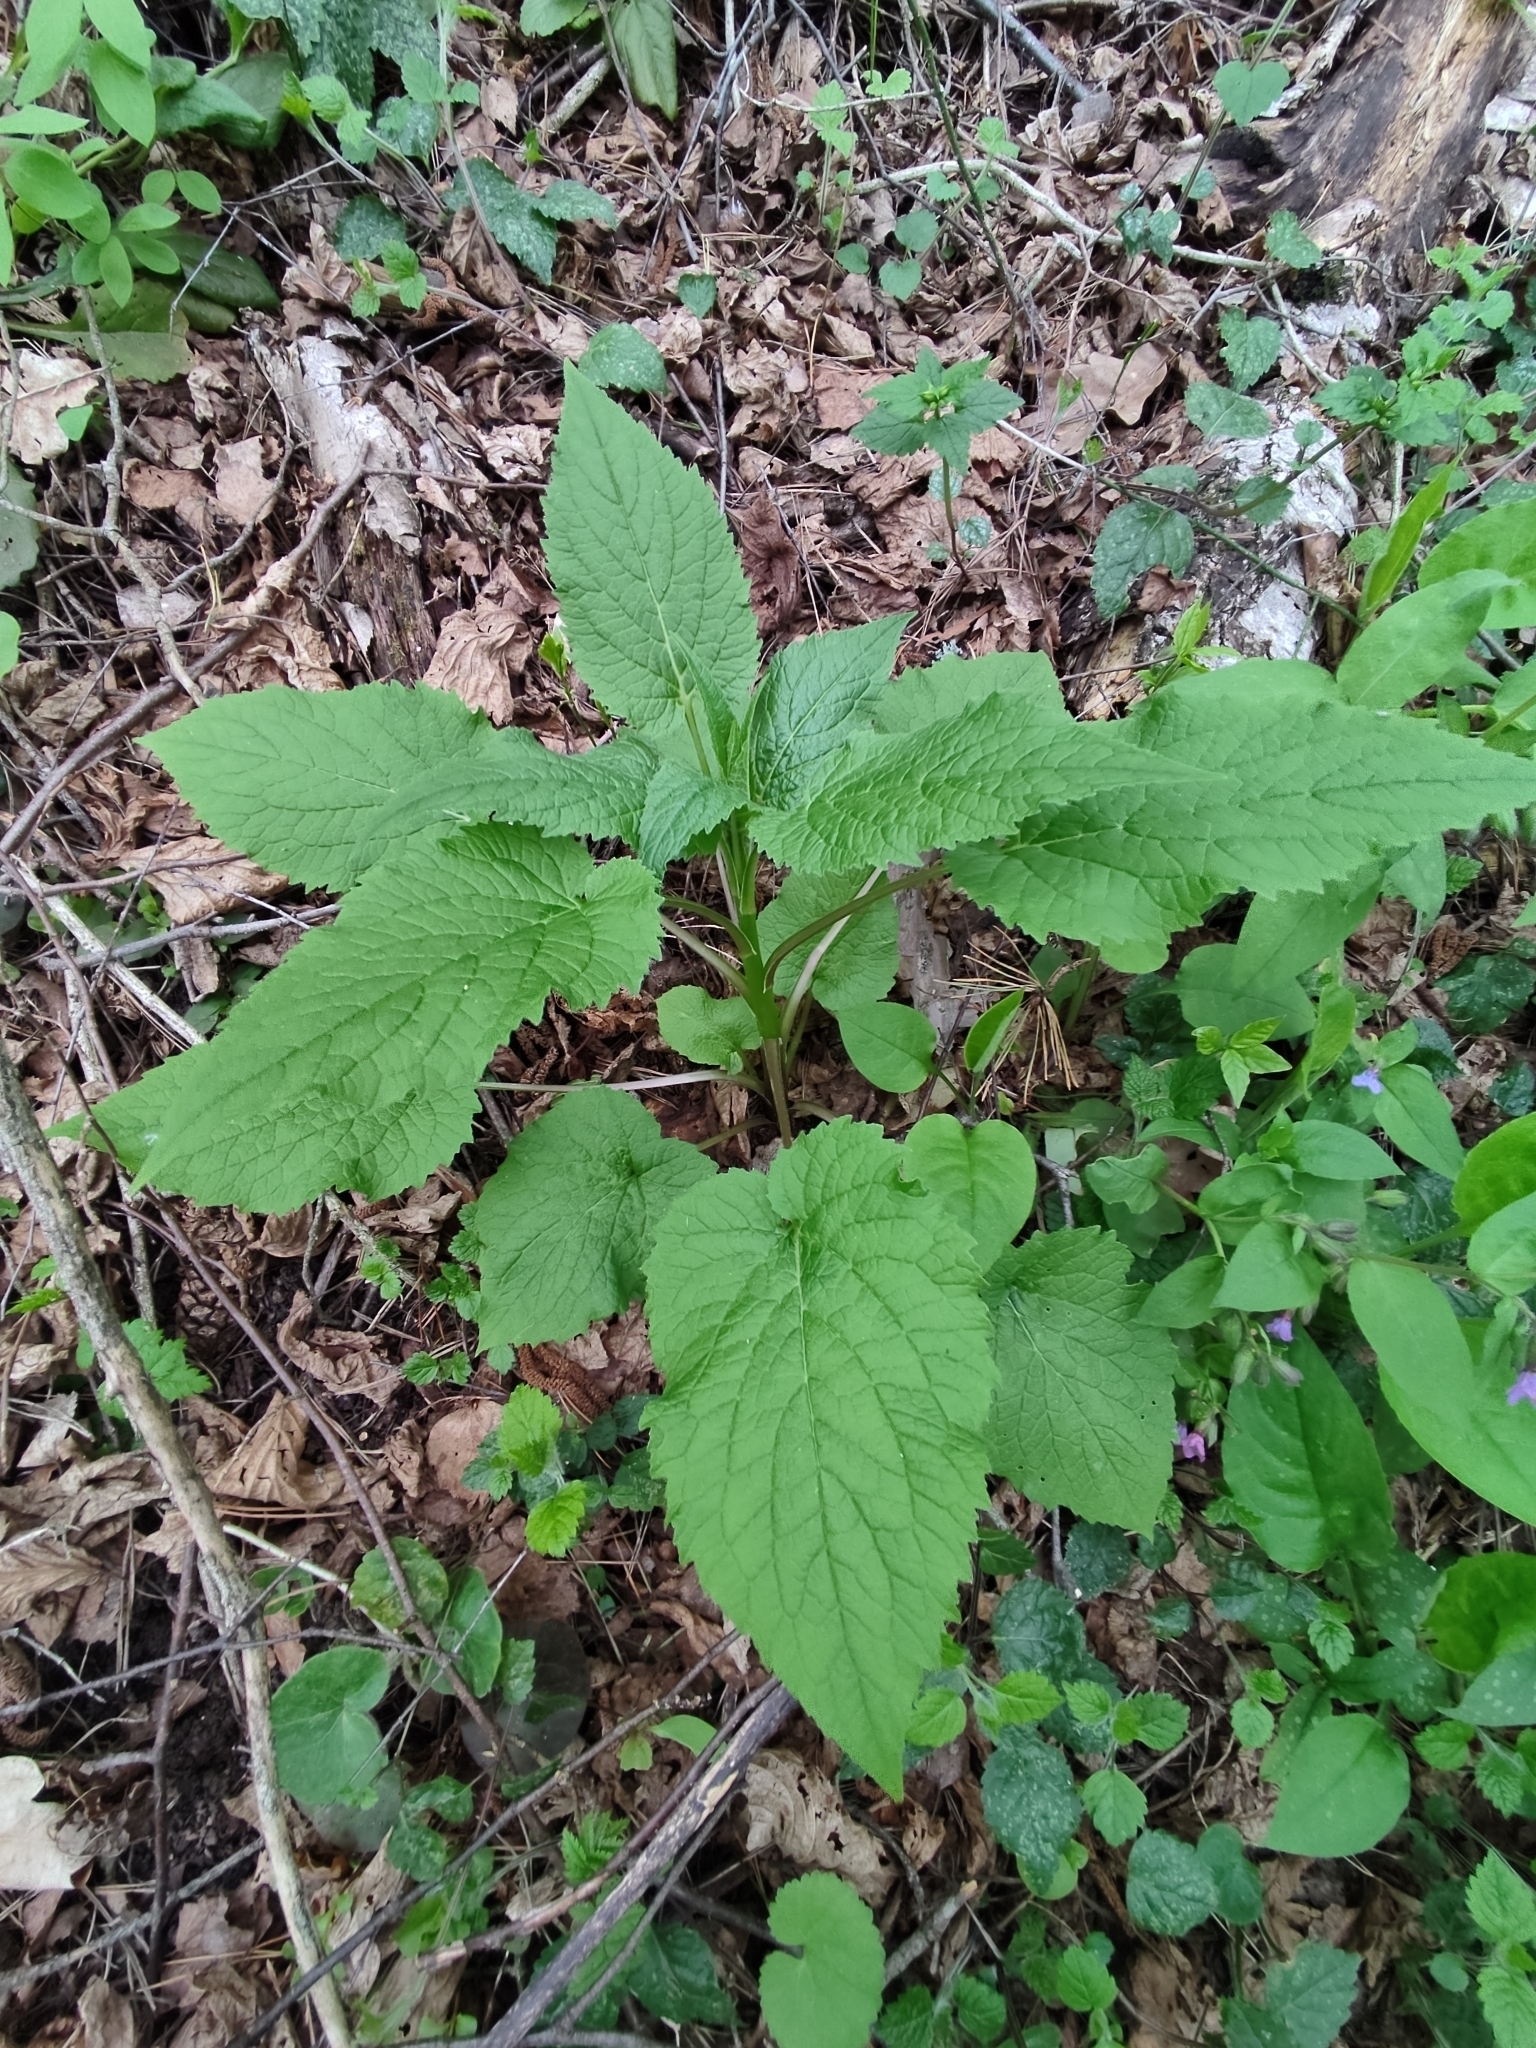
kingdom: Plantae
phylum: Tracheophyta
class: Magnoliopsida
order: Asterales
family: Campanulaceae
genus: Campanula
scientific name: Campanula latifolia
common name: Giant bellflower
